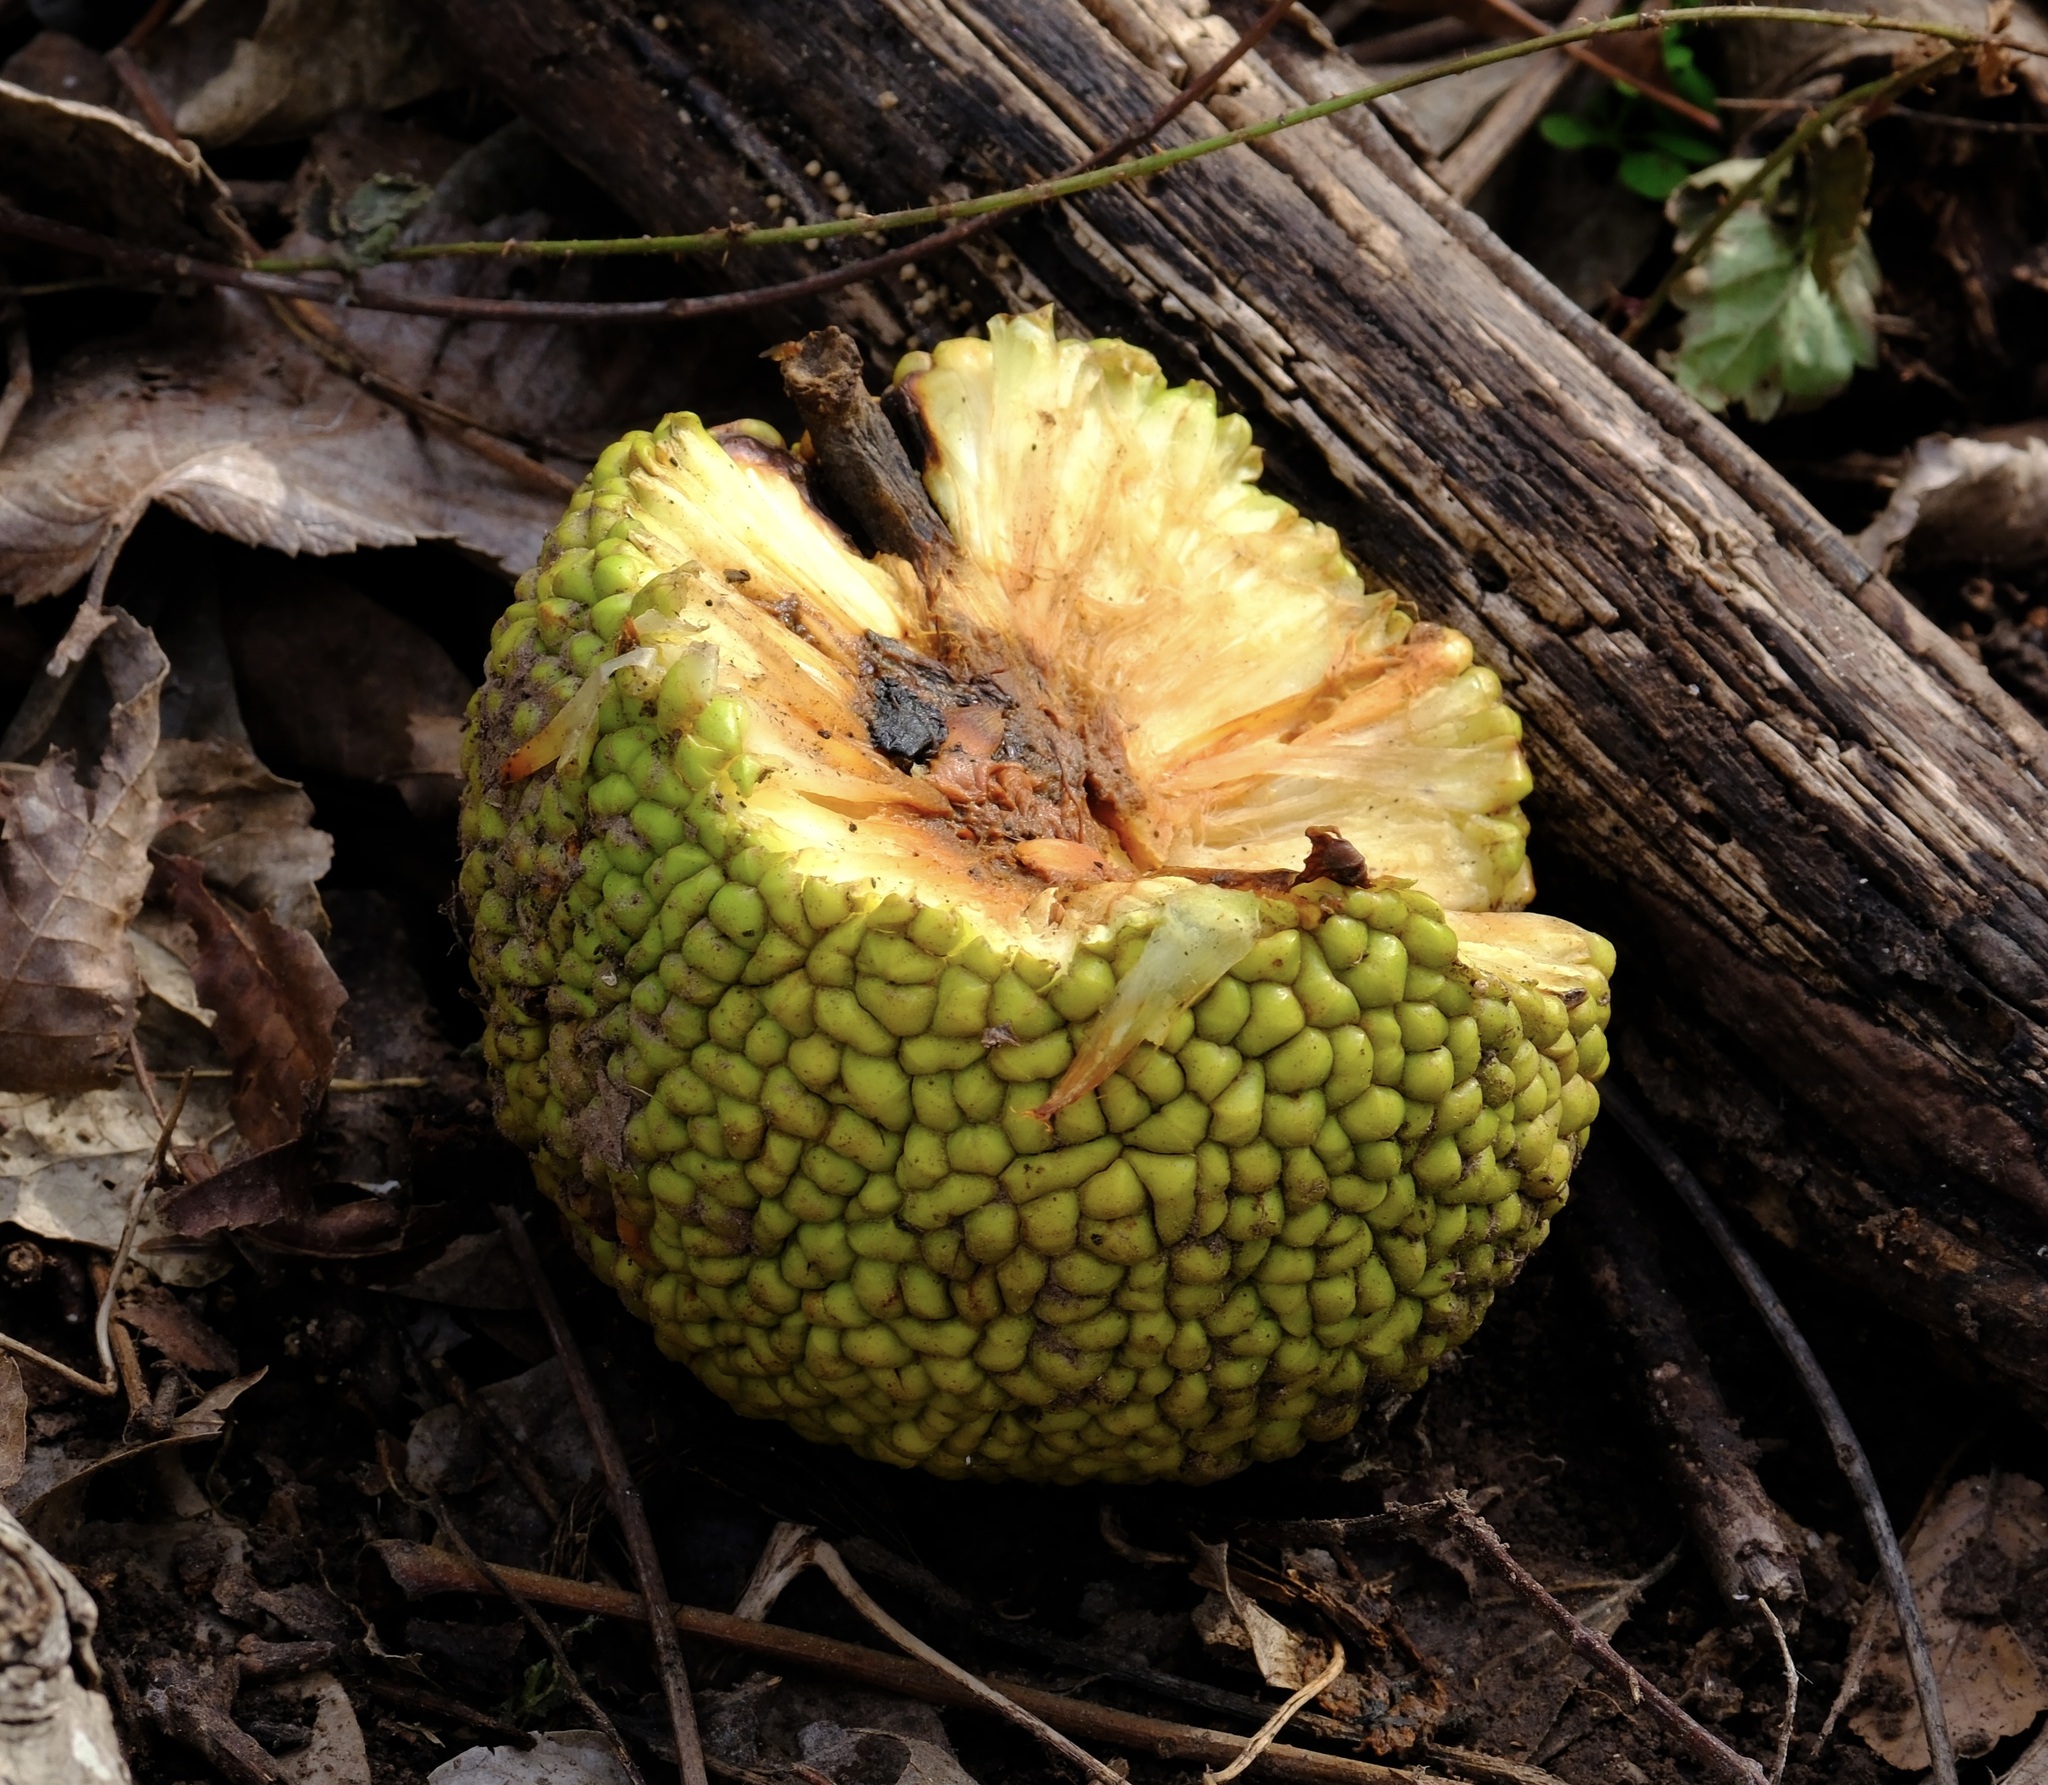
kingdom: Plantae
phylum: Tracheophyta
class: Magnoliopsida
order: Rosales
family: Moraceae
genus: Maclura
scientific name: Maclura pomifera
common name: Osage-orange
